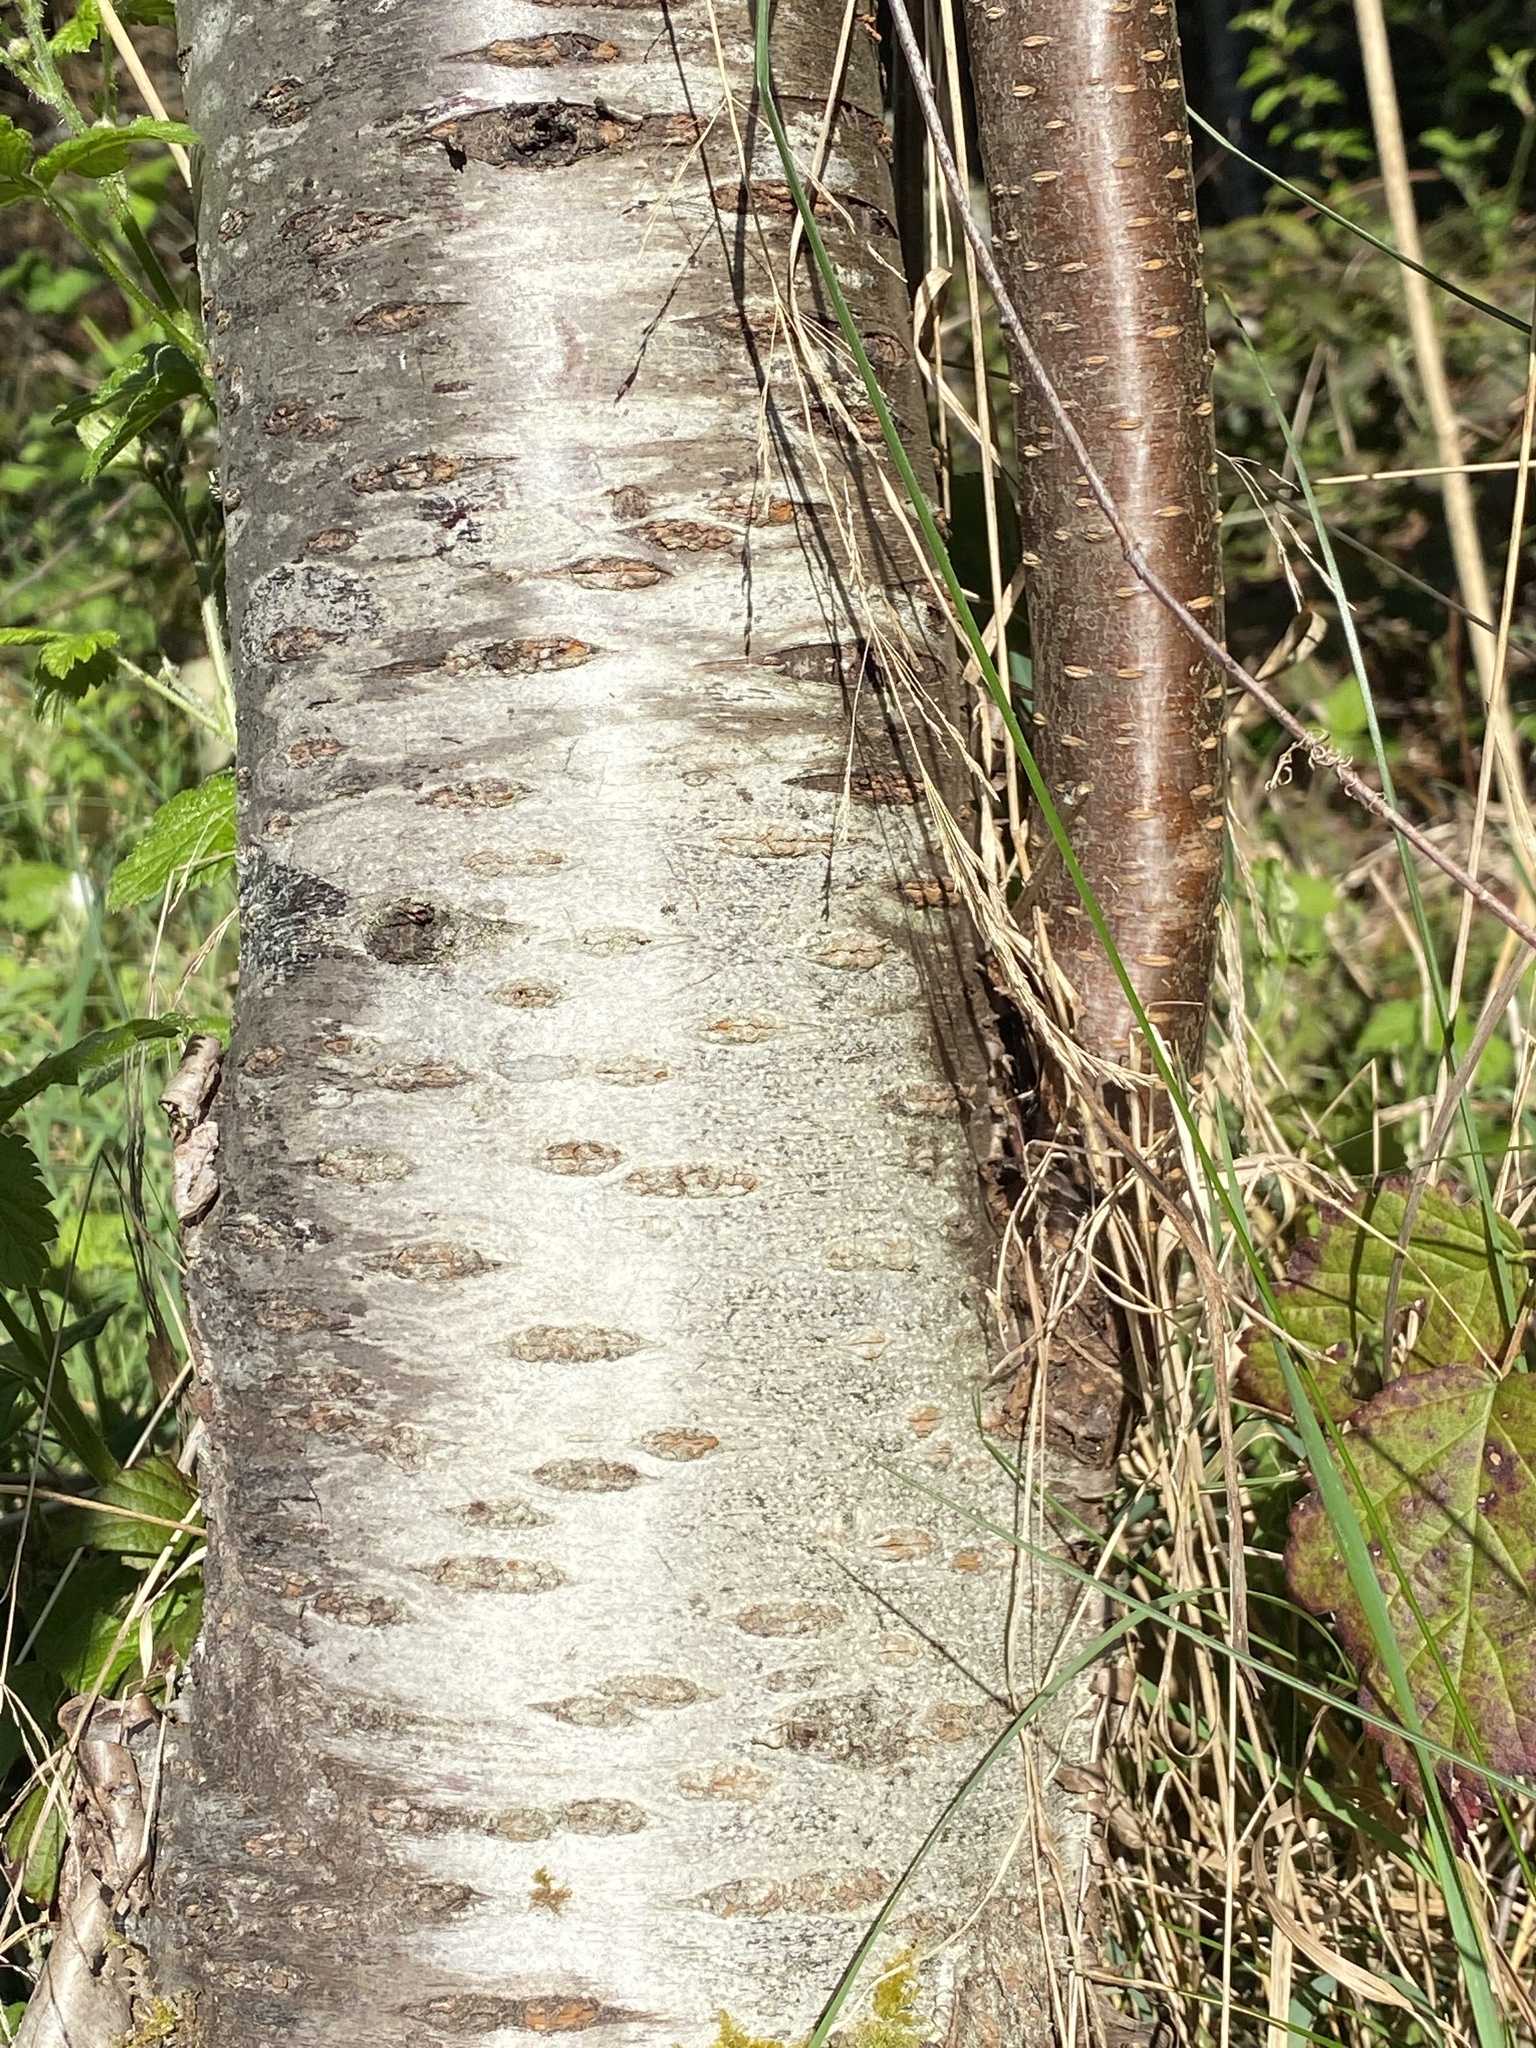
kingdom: Plantae
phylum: Tracheophyta
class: Magnoliopsida
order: Rosales
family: Rosaceae
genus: Prunus
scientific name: Prunus emarginata
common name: Bitter cherry
